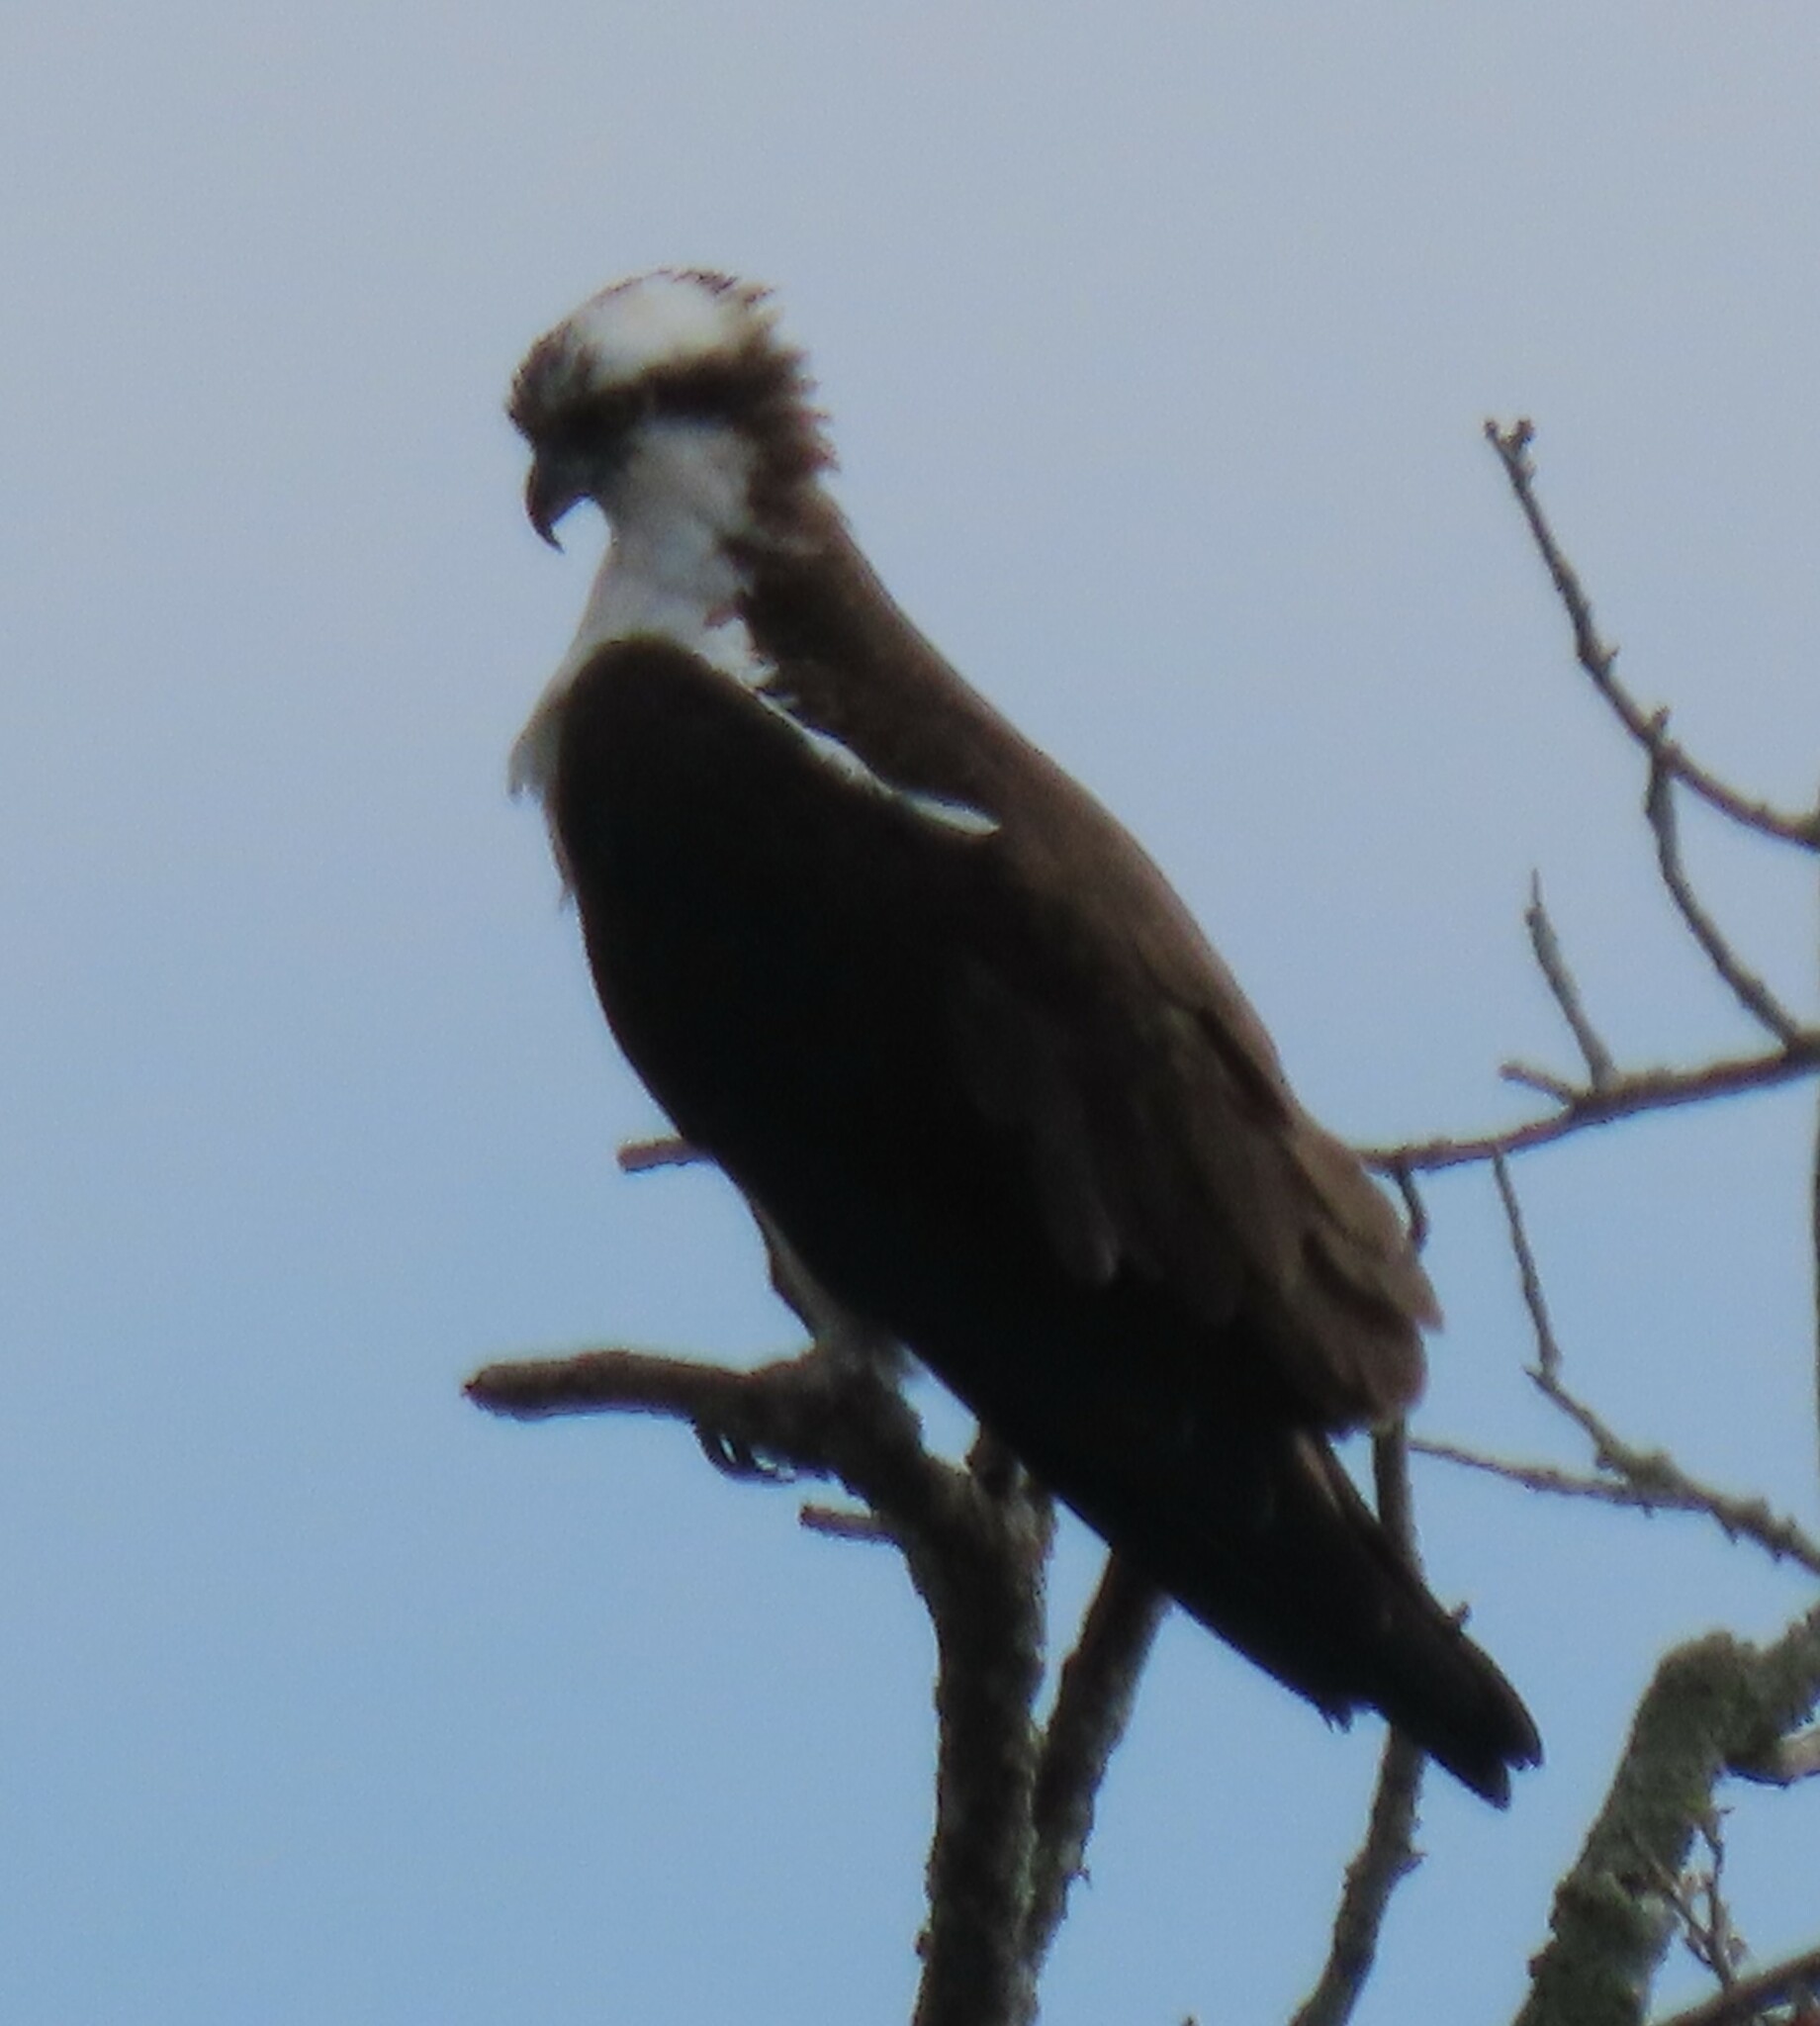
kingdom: Animalia
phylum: Chordata
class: Aves
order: Accipitriformes
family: Pandionidae
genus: Pandion
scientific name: Pandion haliaetus
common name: Osprey
